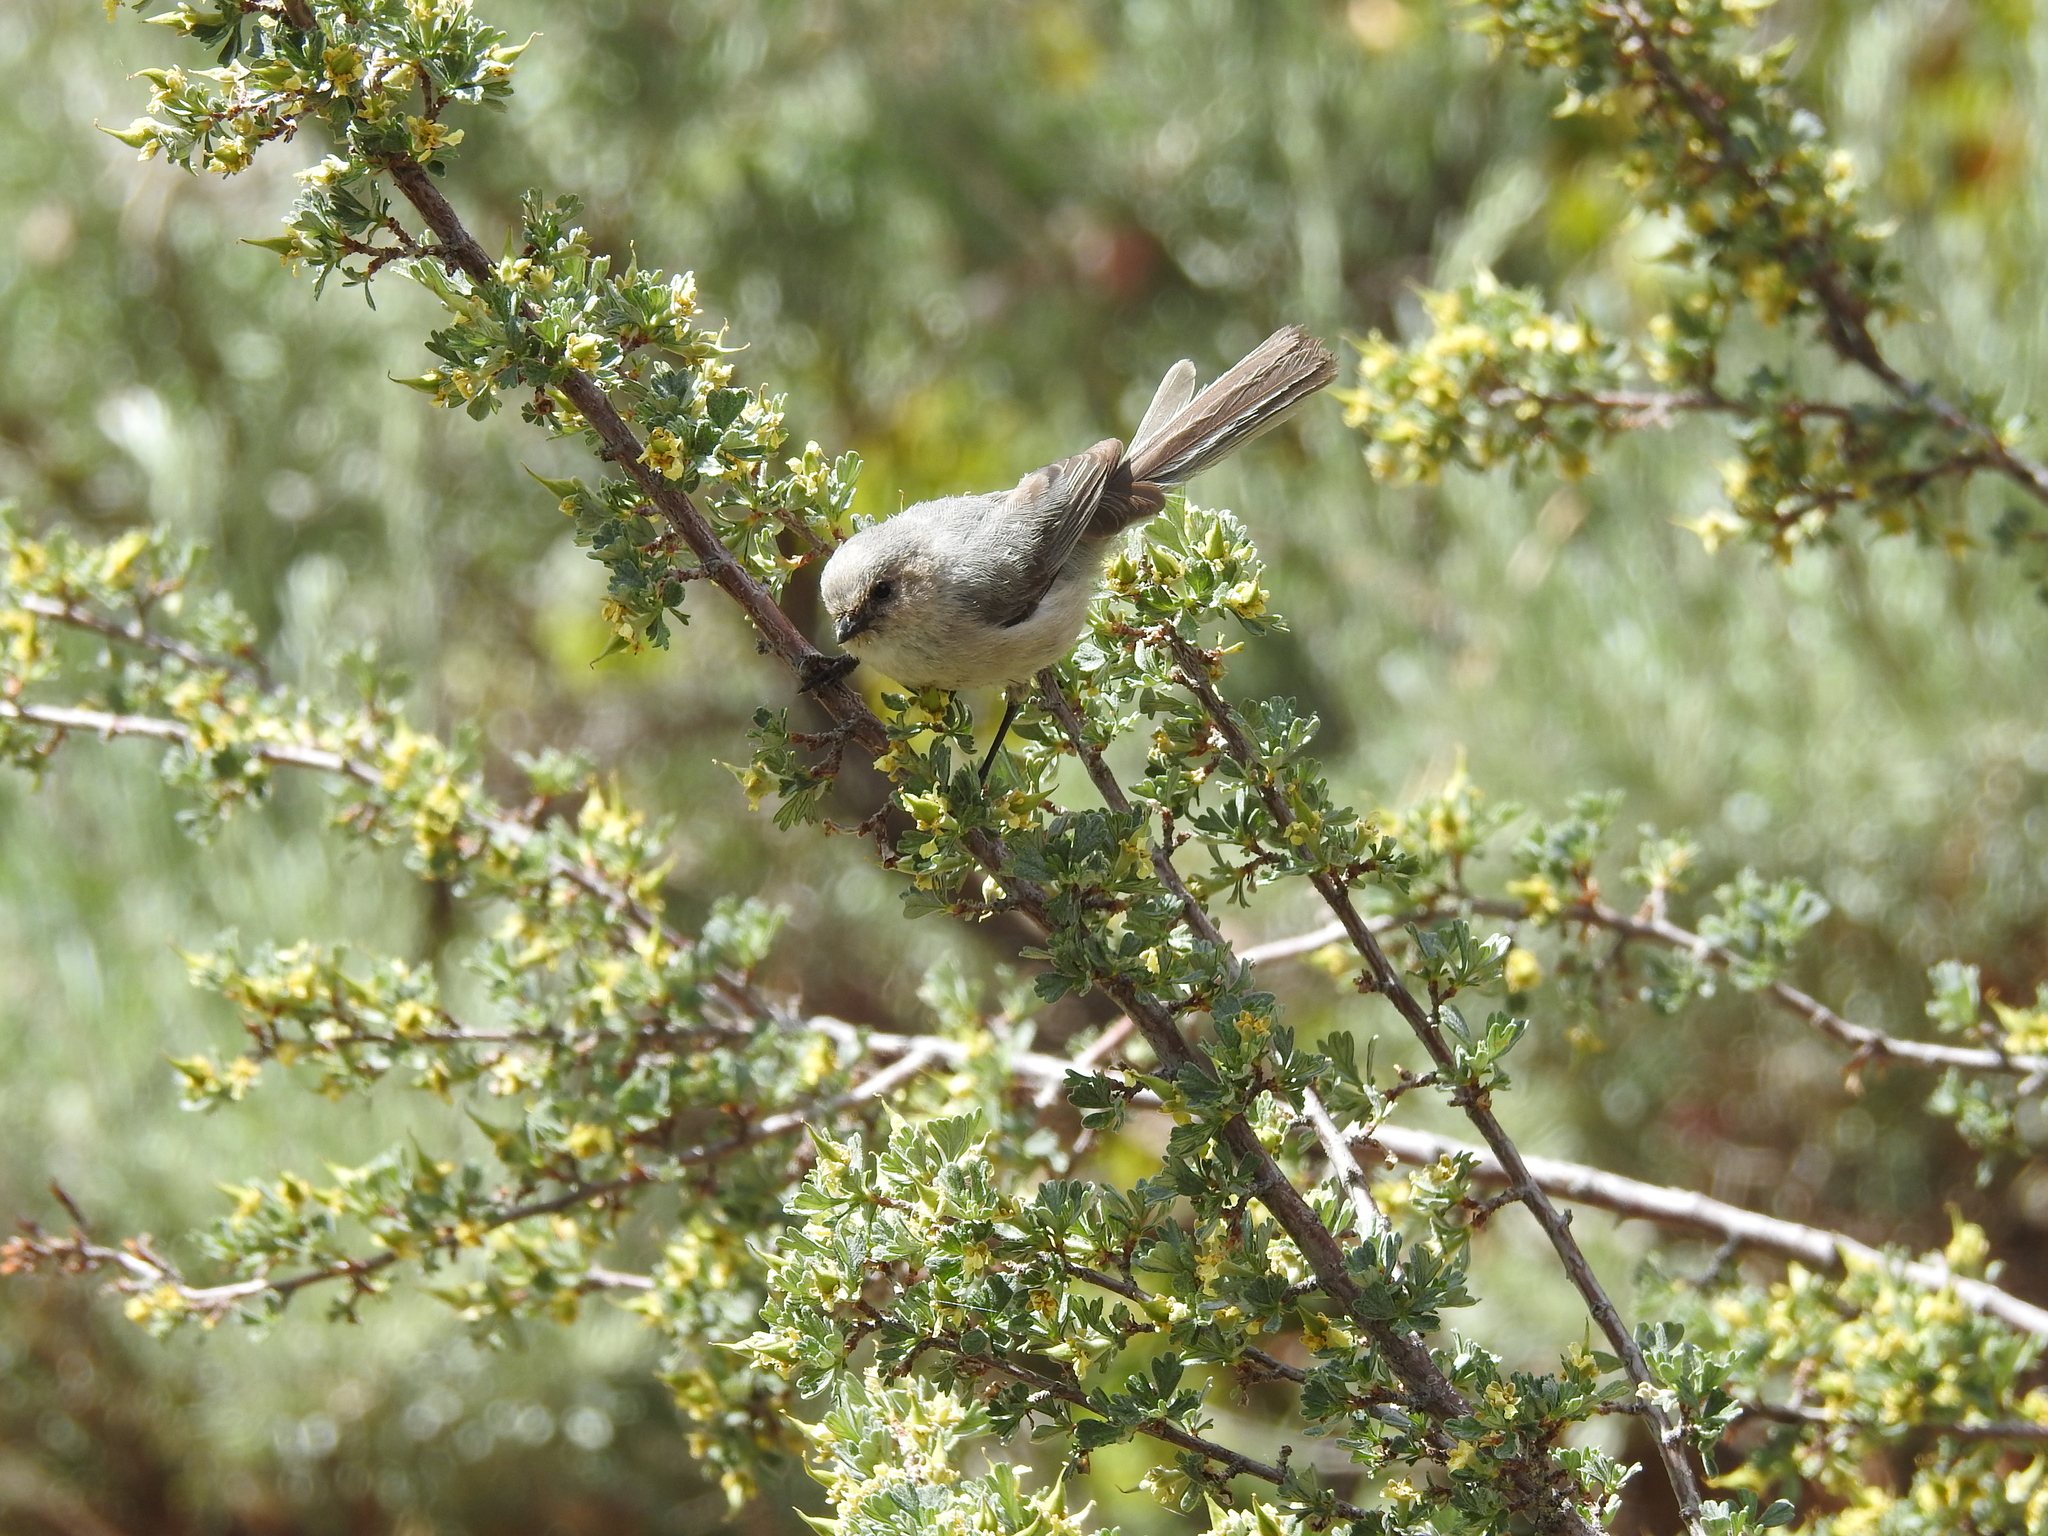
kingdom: Animalia
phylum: Chordata
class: Aves
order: Passeriformes
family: Aegithalidae
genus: Psaltriparus
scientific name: Psaltriparus minimus
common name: American bushtit
